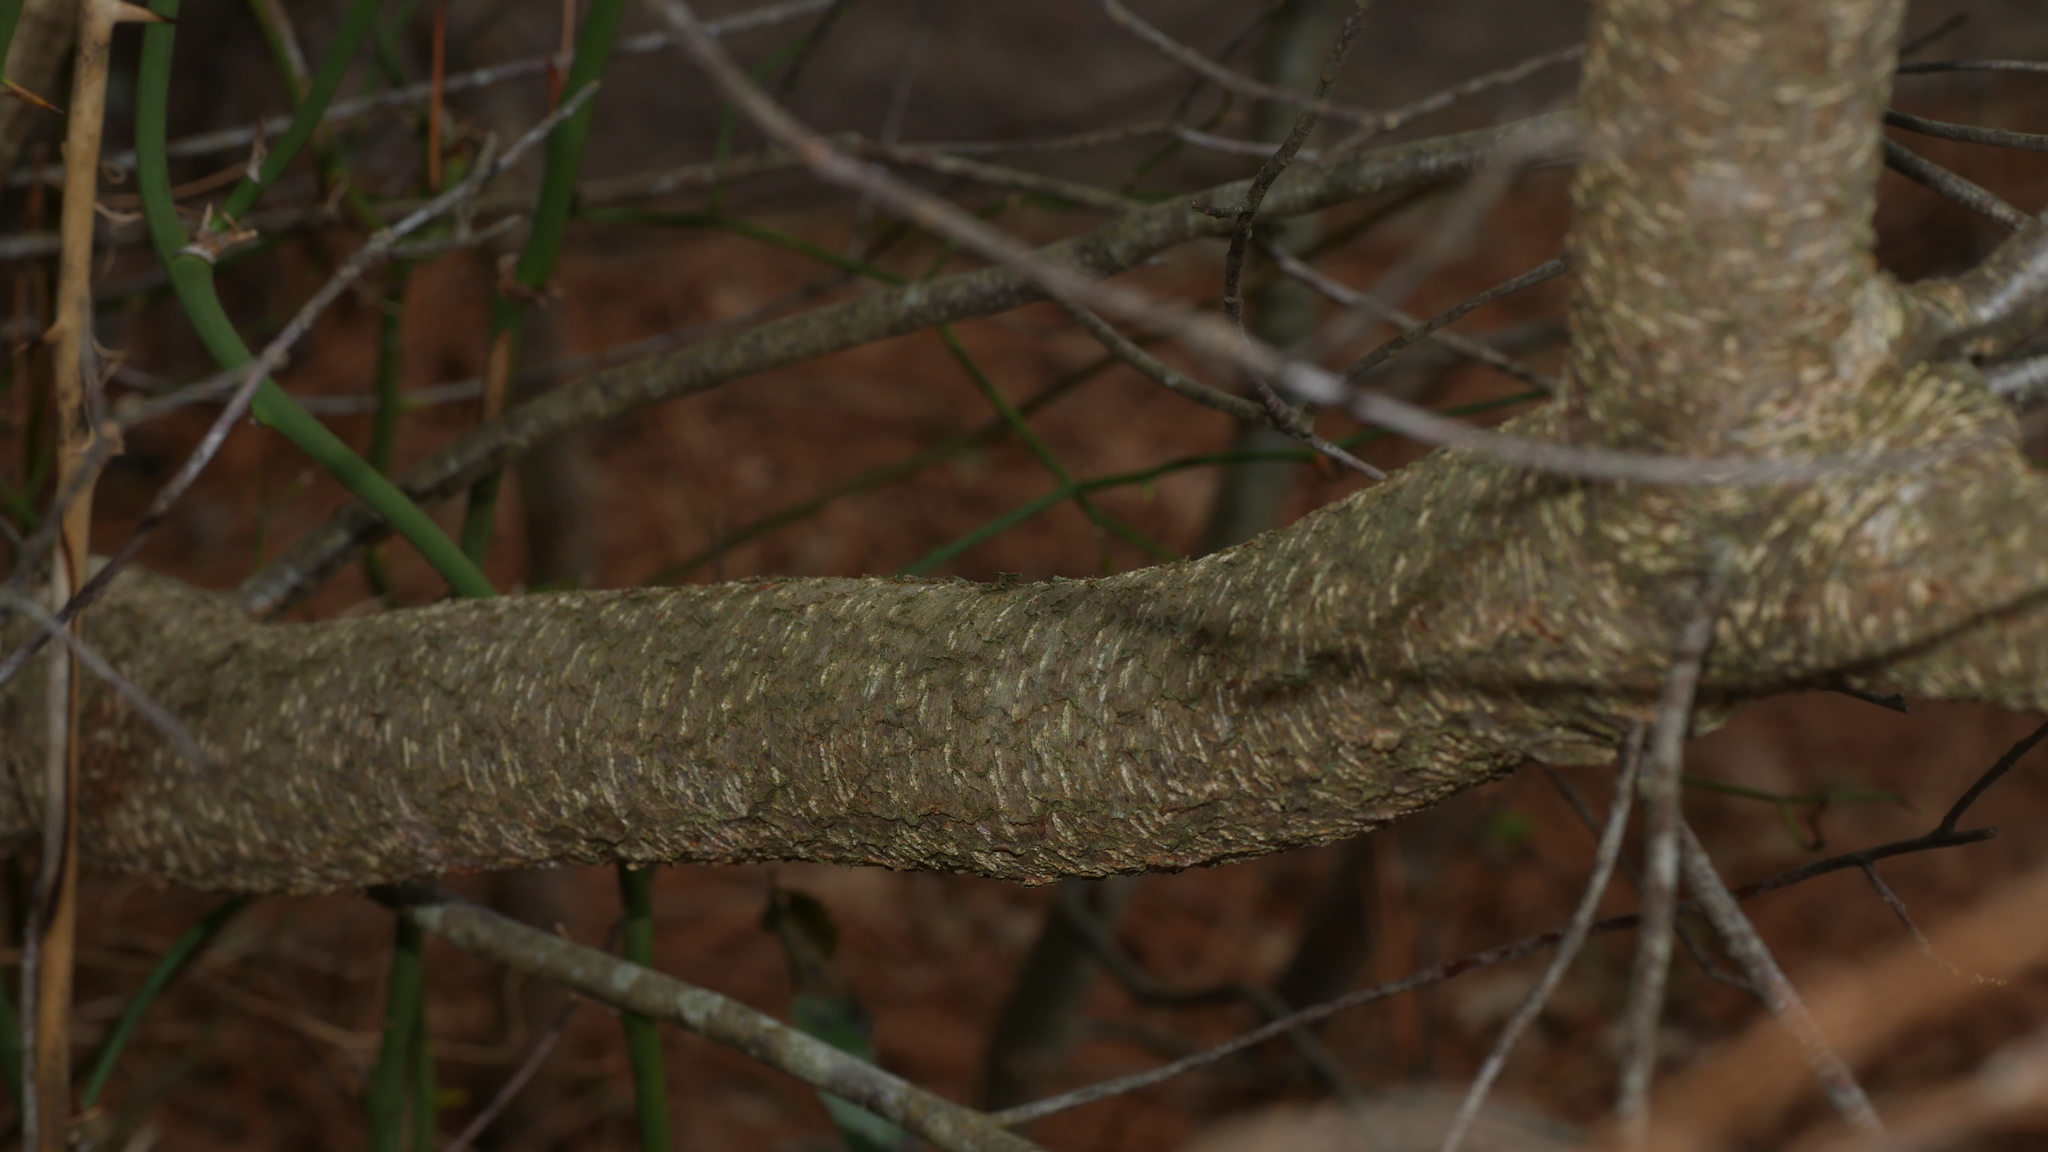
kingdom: Plantae
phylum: Tracheophyta
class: Magnoliopsida
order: Fagales
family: Myricaceae
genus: Morella
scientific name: Morella cerifera
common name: Wax myrtle
